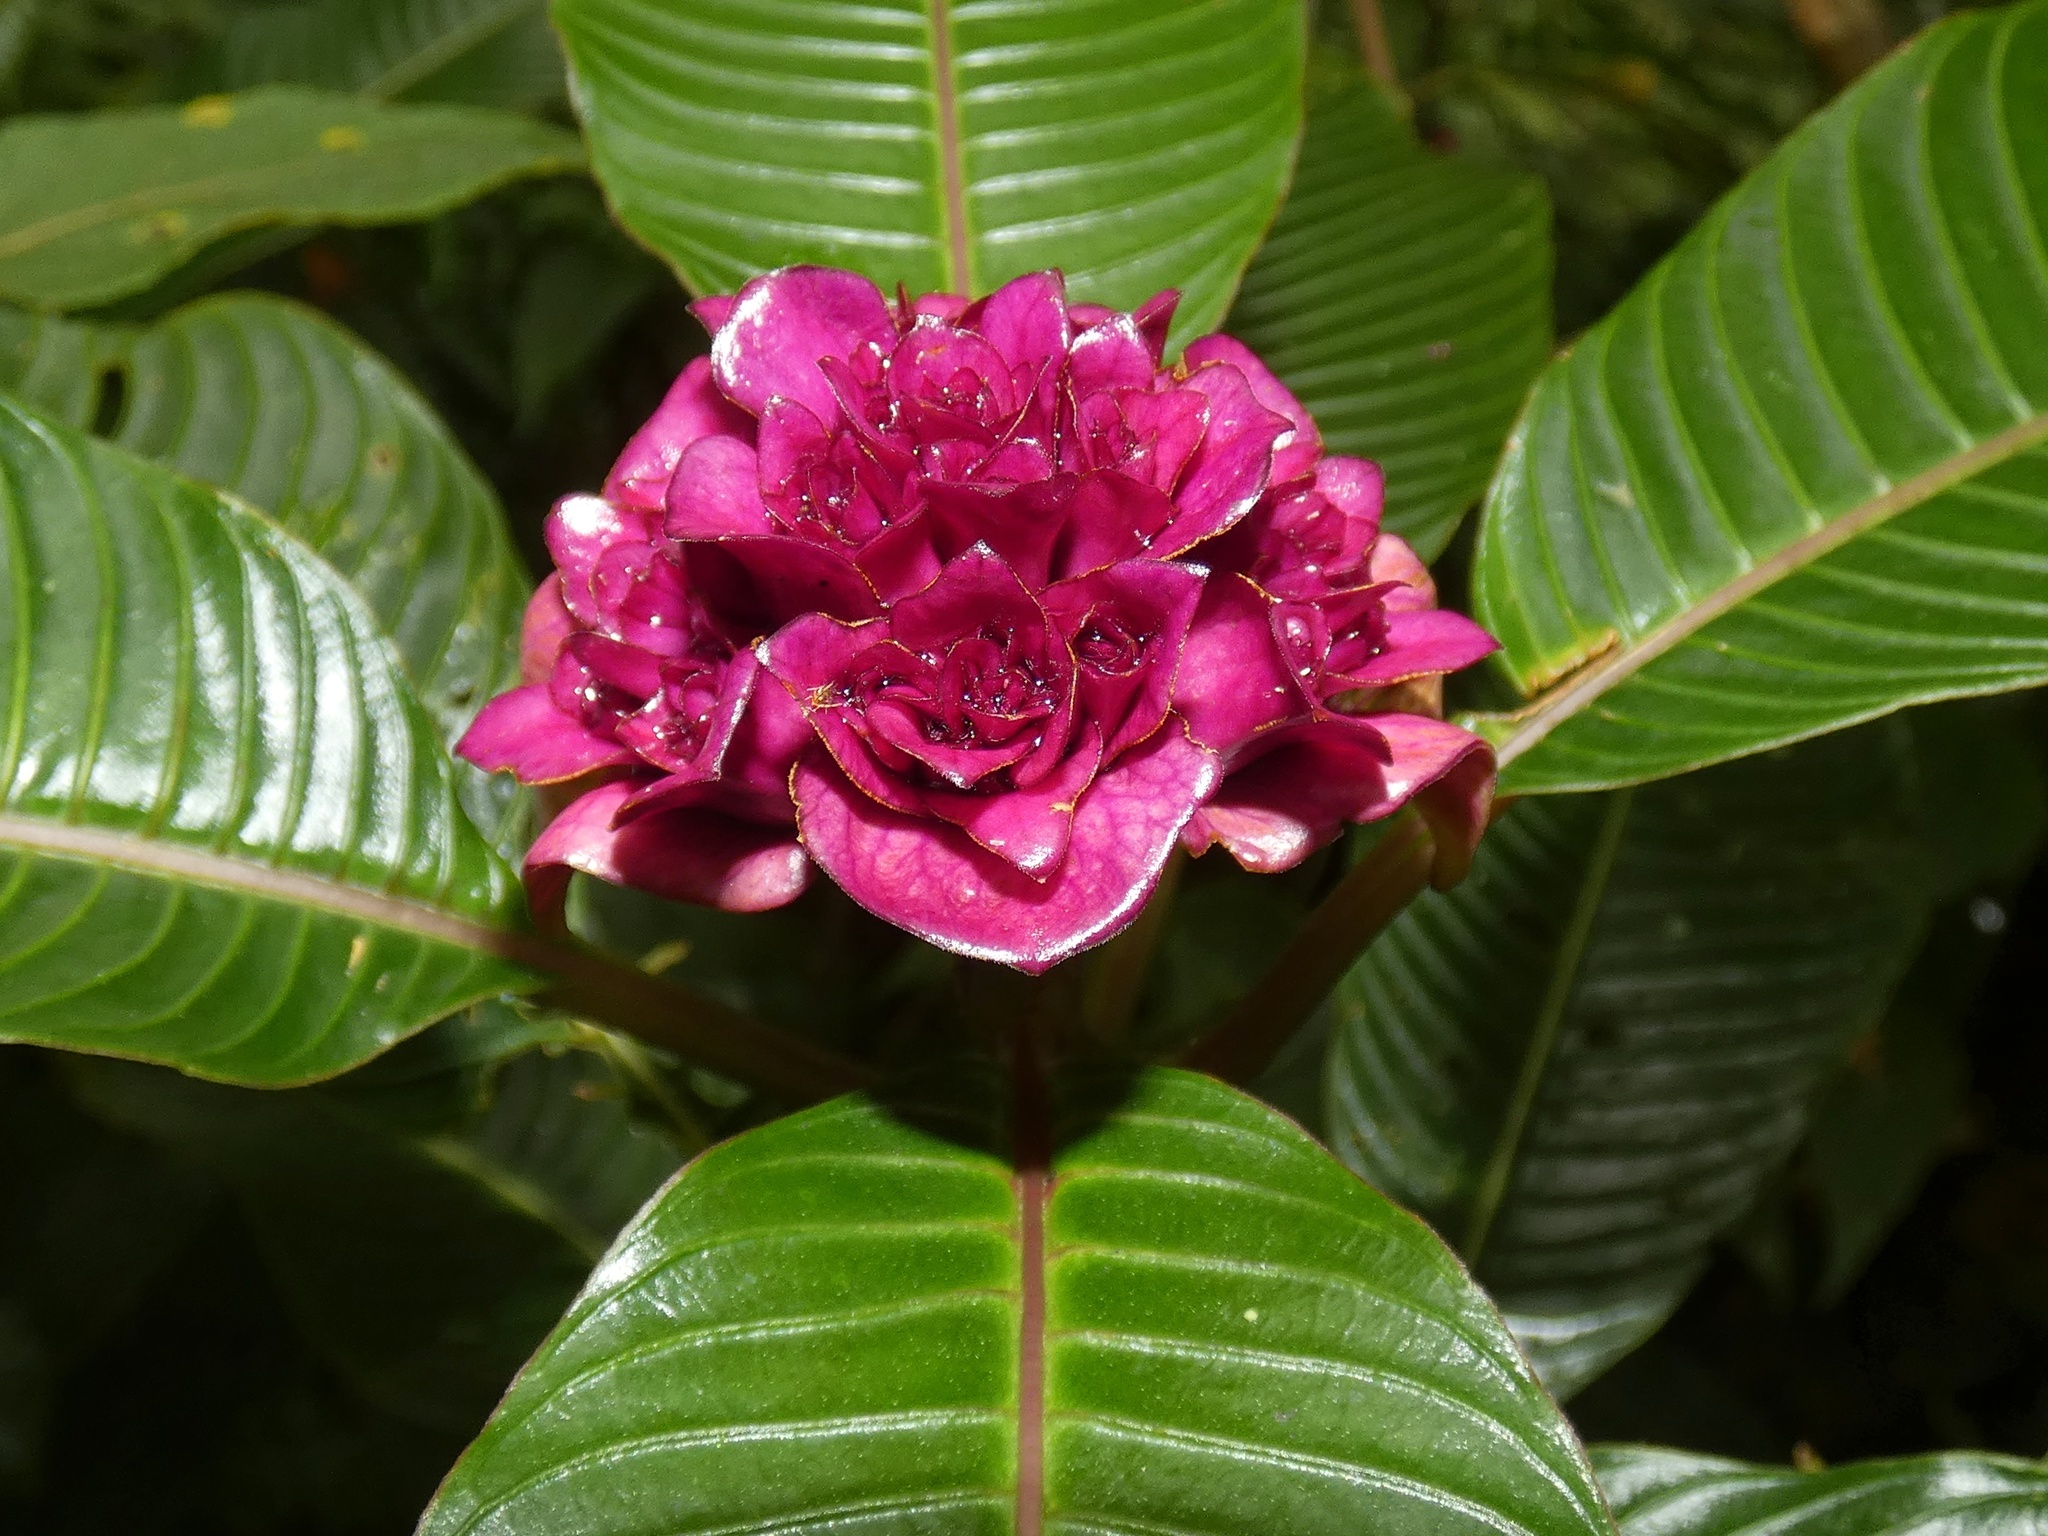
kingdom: Plantae
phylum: Tracheophyta
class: Magnoliopsida
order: Gentianales
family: Rubiaceae
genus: Palicourea
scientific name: Palicourea chiriquiensis
